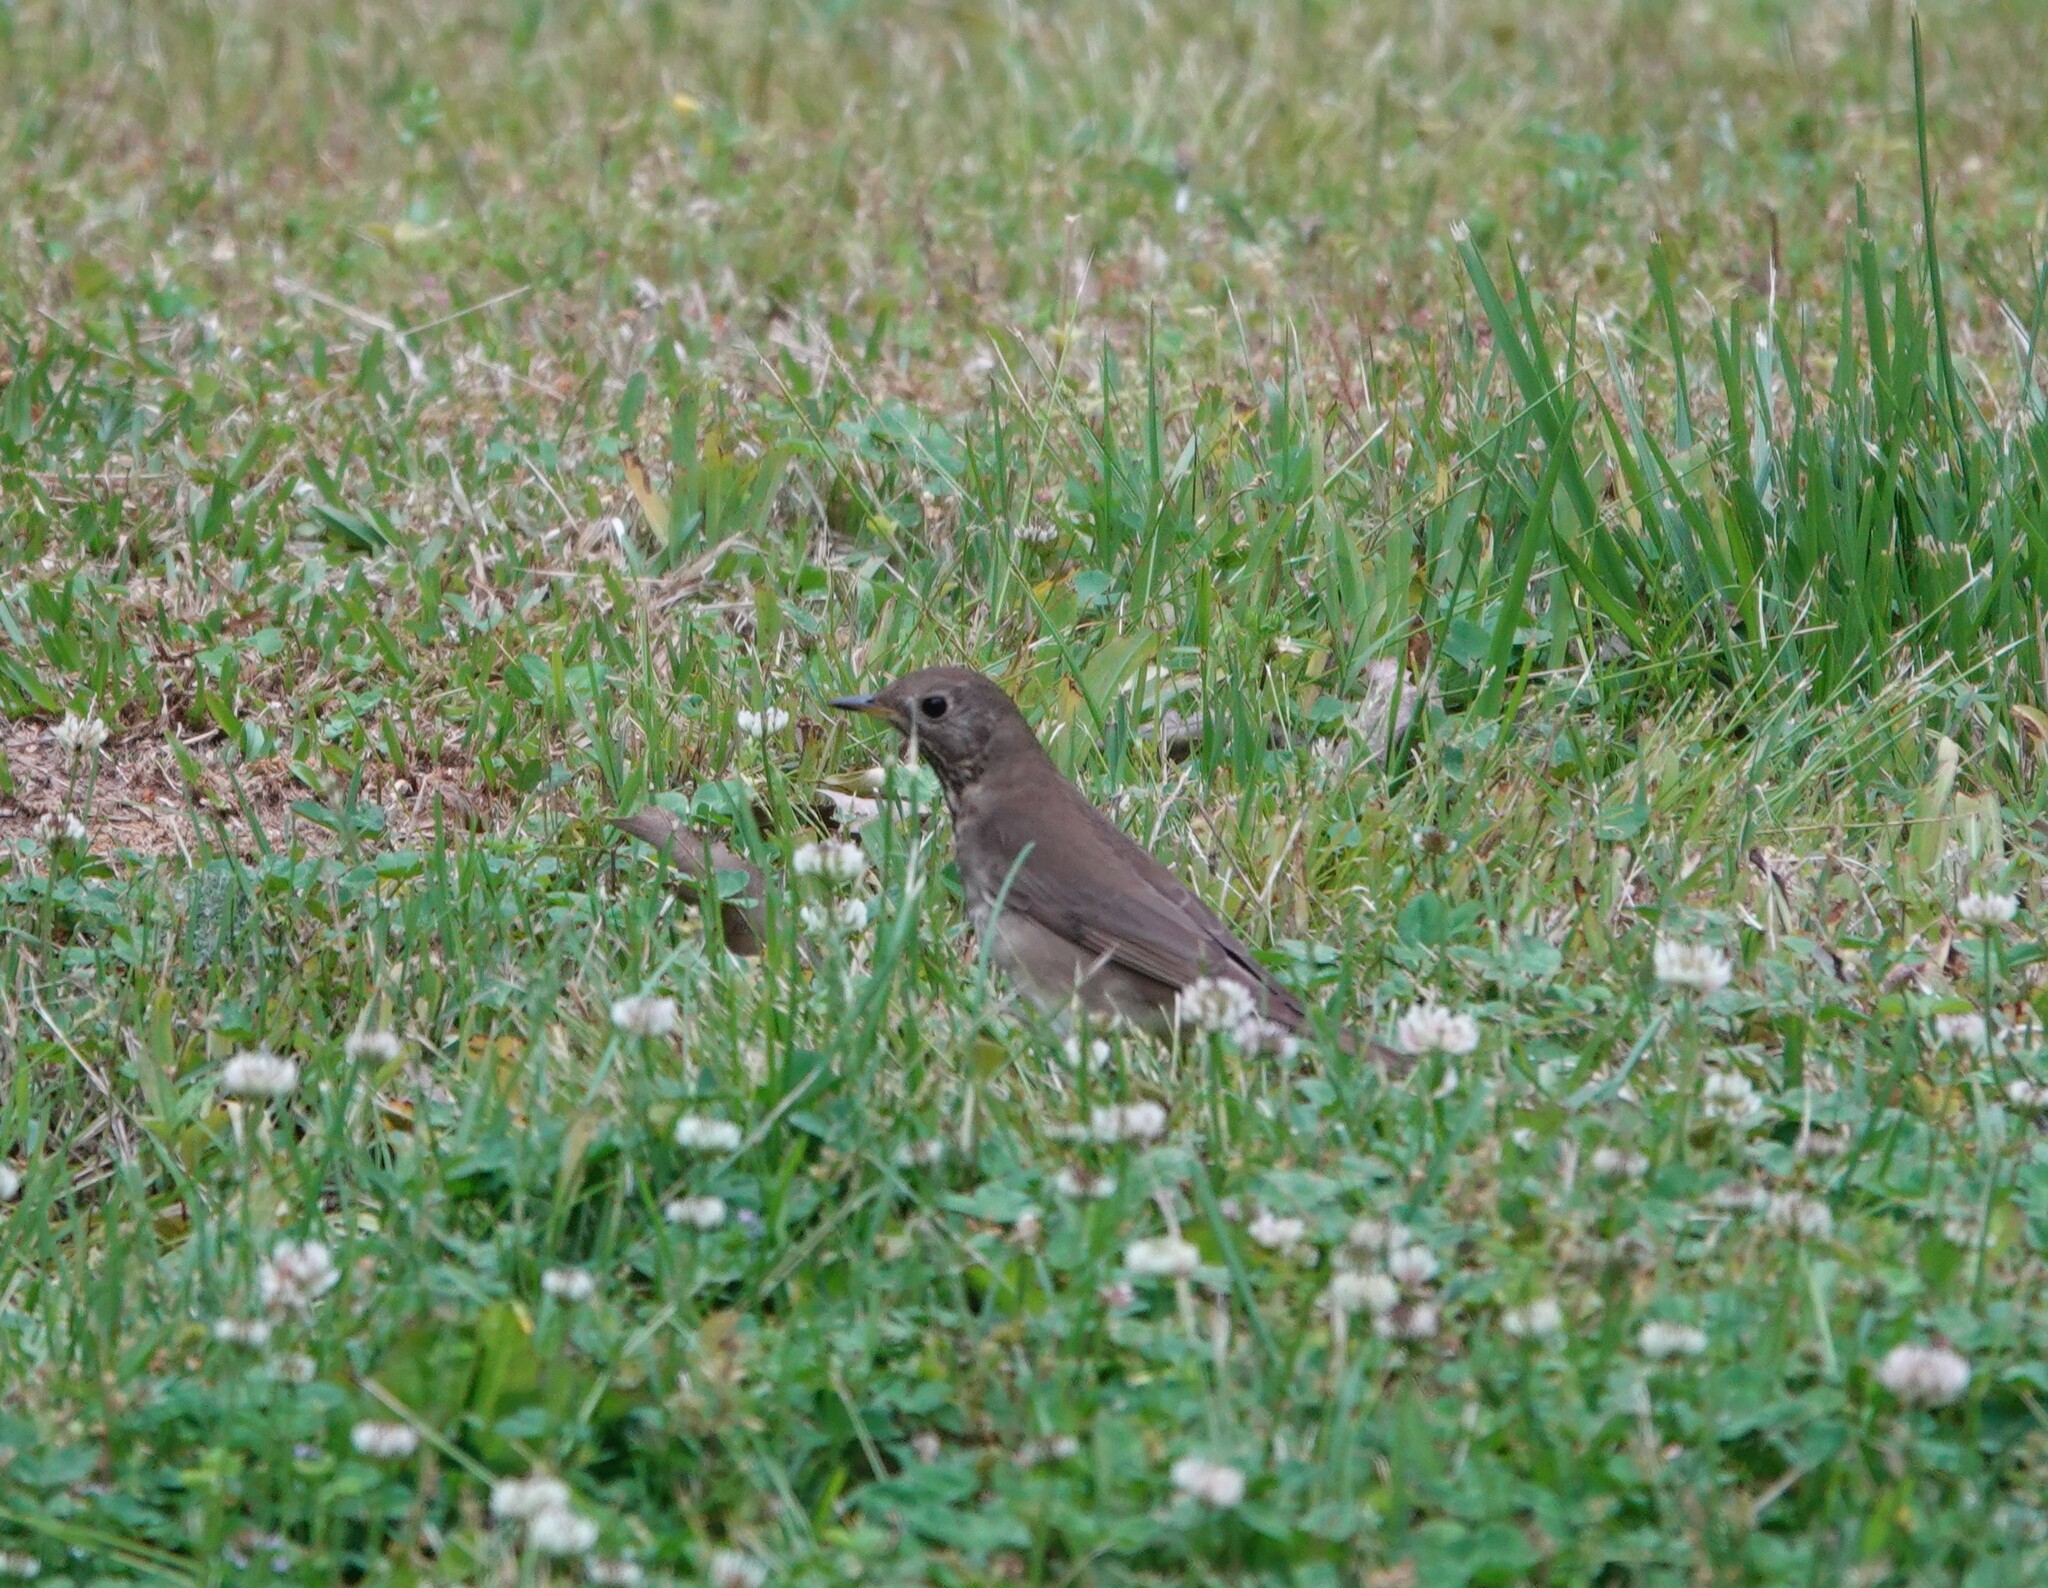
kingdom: Animalia
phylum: Chordata
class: Aves
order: Passeriformes
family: Turdidae
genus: Catharus
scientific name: Catharus minimus
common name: Grey-cheeked thrush
